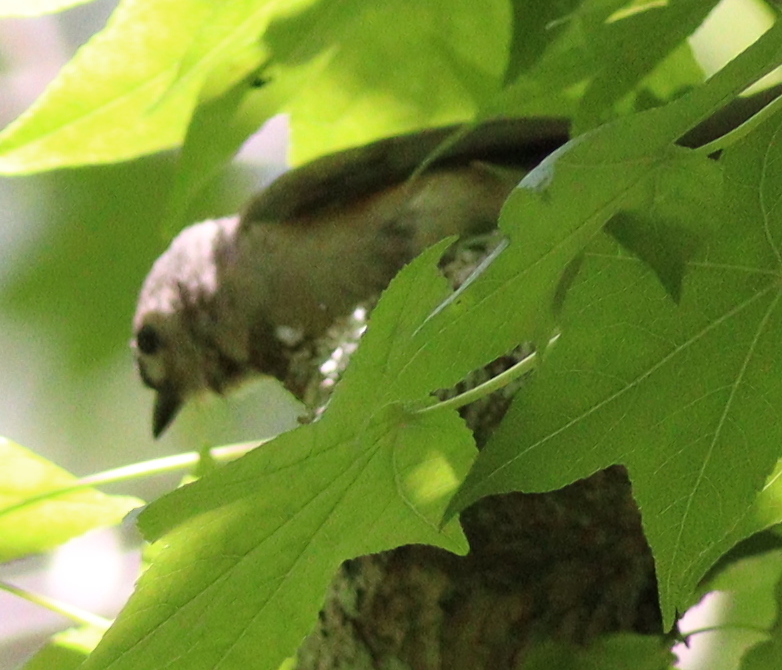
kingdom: Animalia
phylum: Chordata
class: Aves
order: Passeriformes
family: Paridae
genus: Baeolophus
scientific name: Baeolophus bicolor
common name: Tufted titmouse
